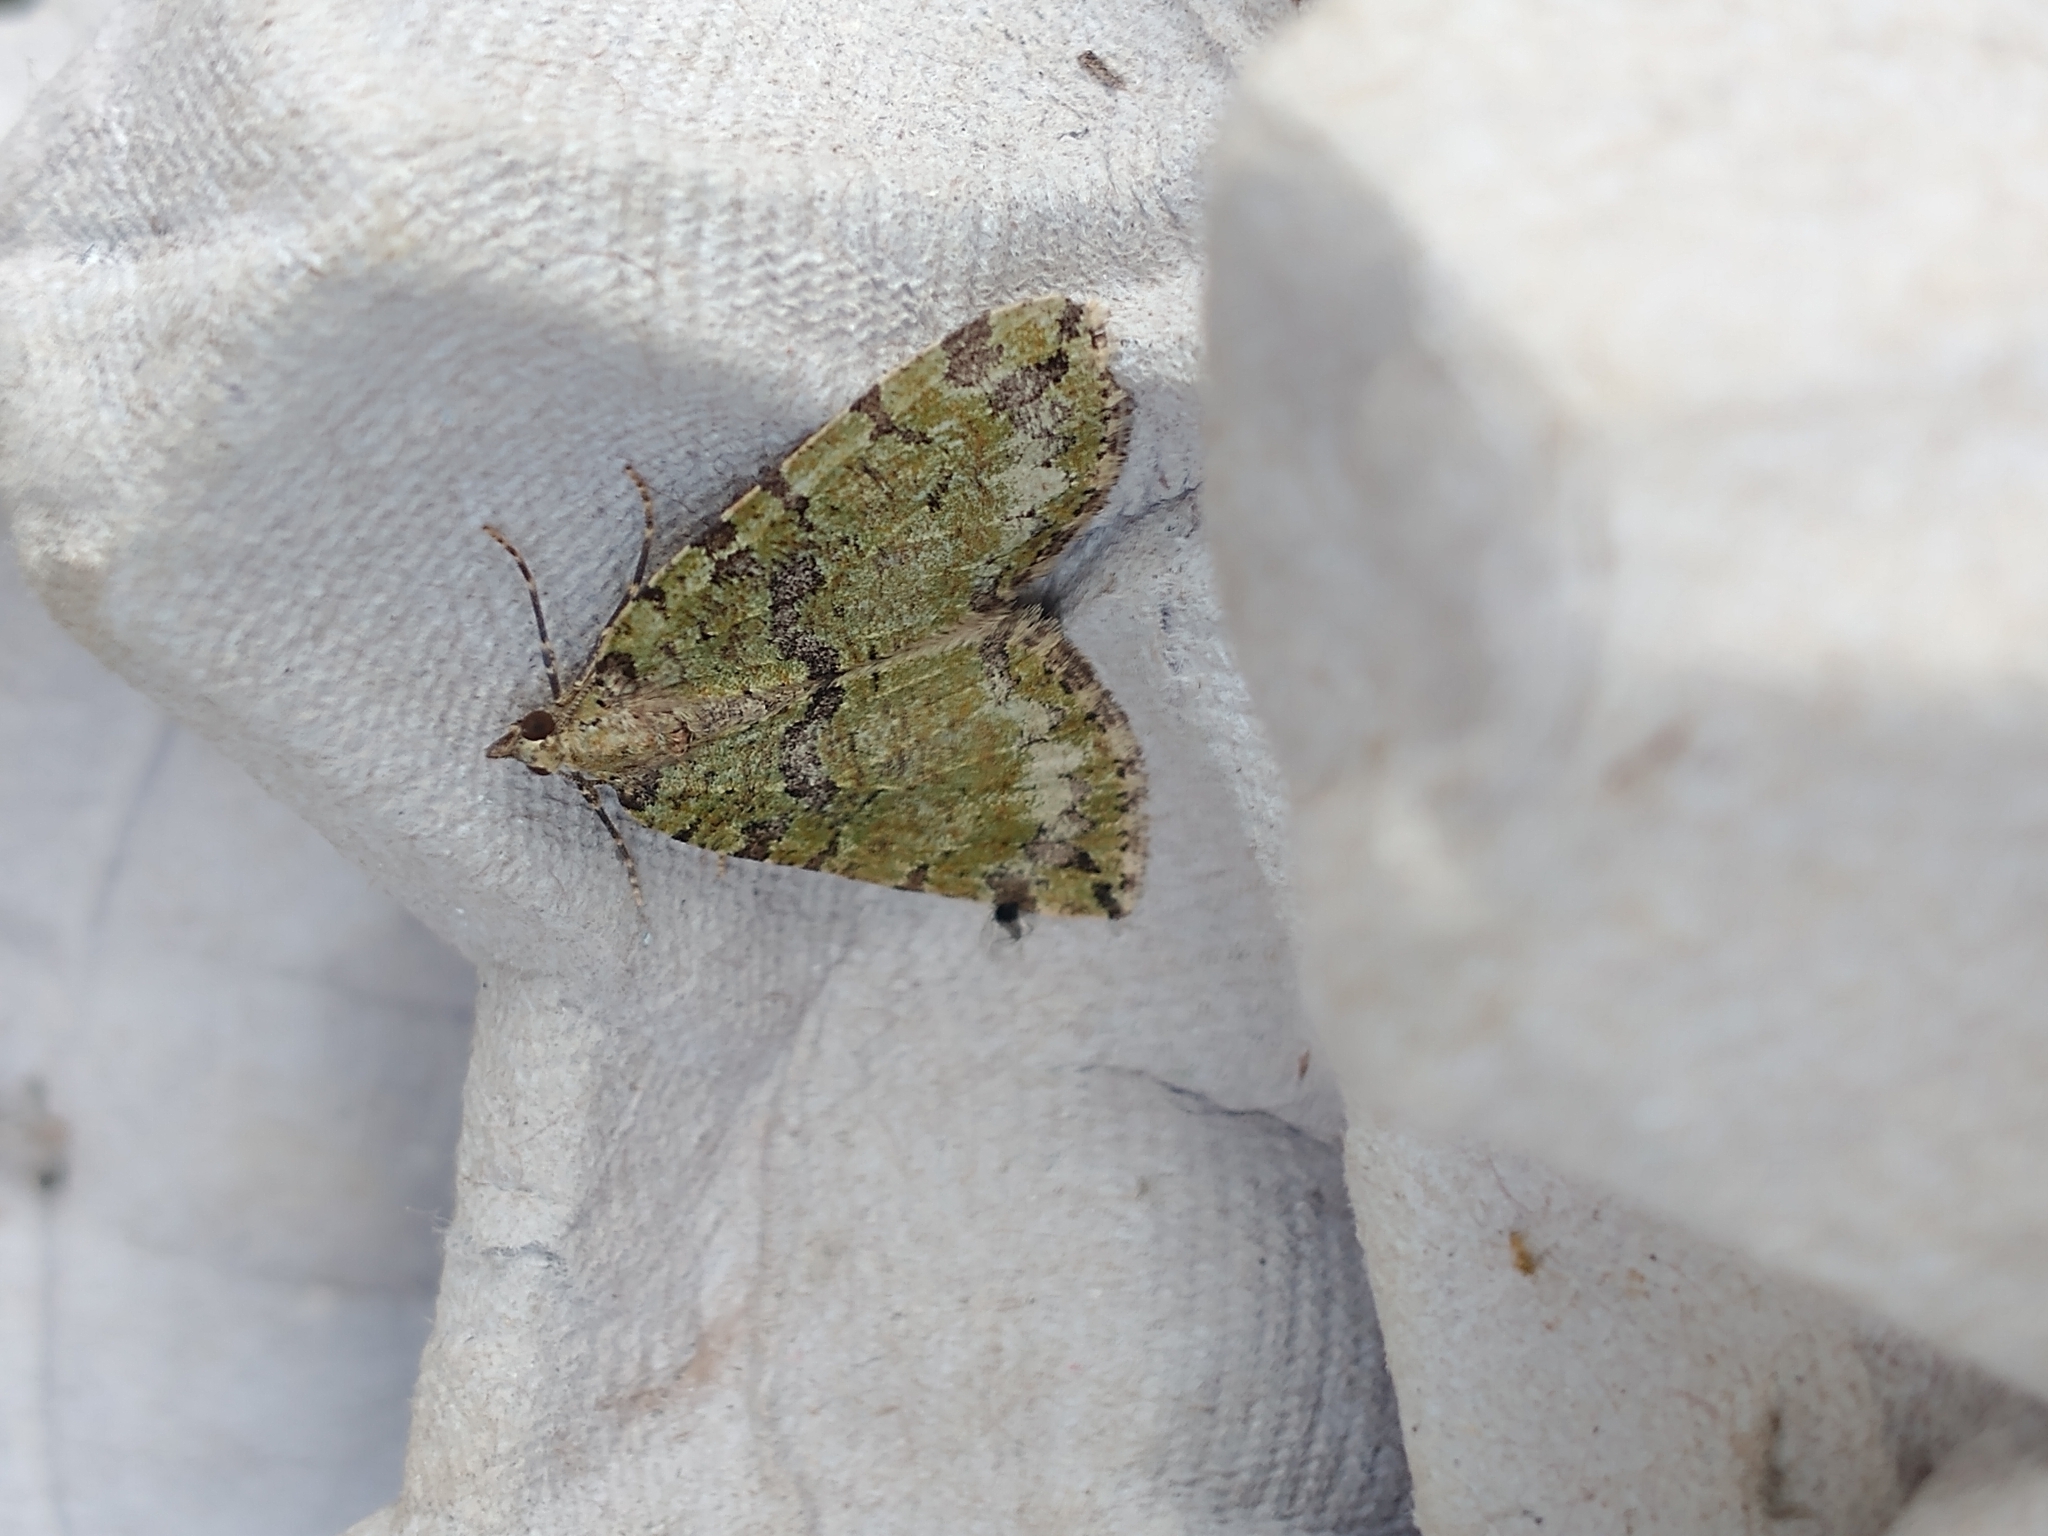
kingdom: Animalia
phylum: Arthropoda
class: Insecta
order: Lepidoptera
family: Geometridae
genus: Hydriomena
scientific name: Hydriomena furcata
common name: July highflyer
